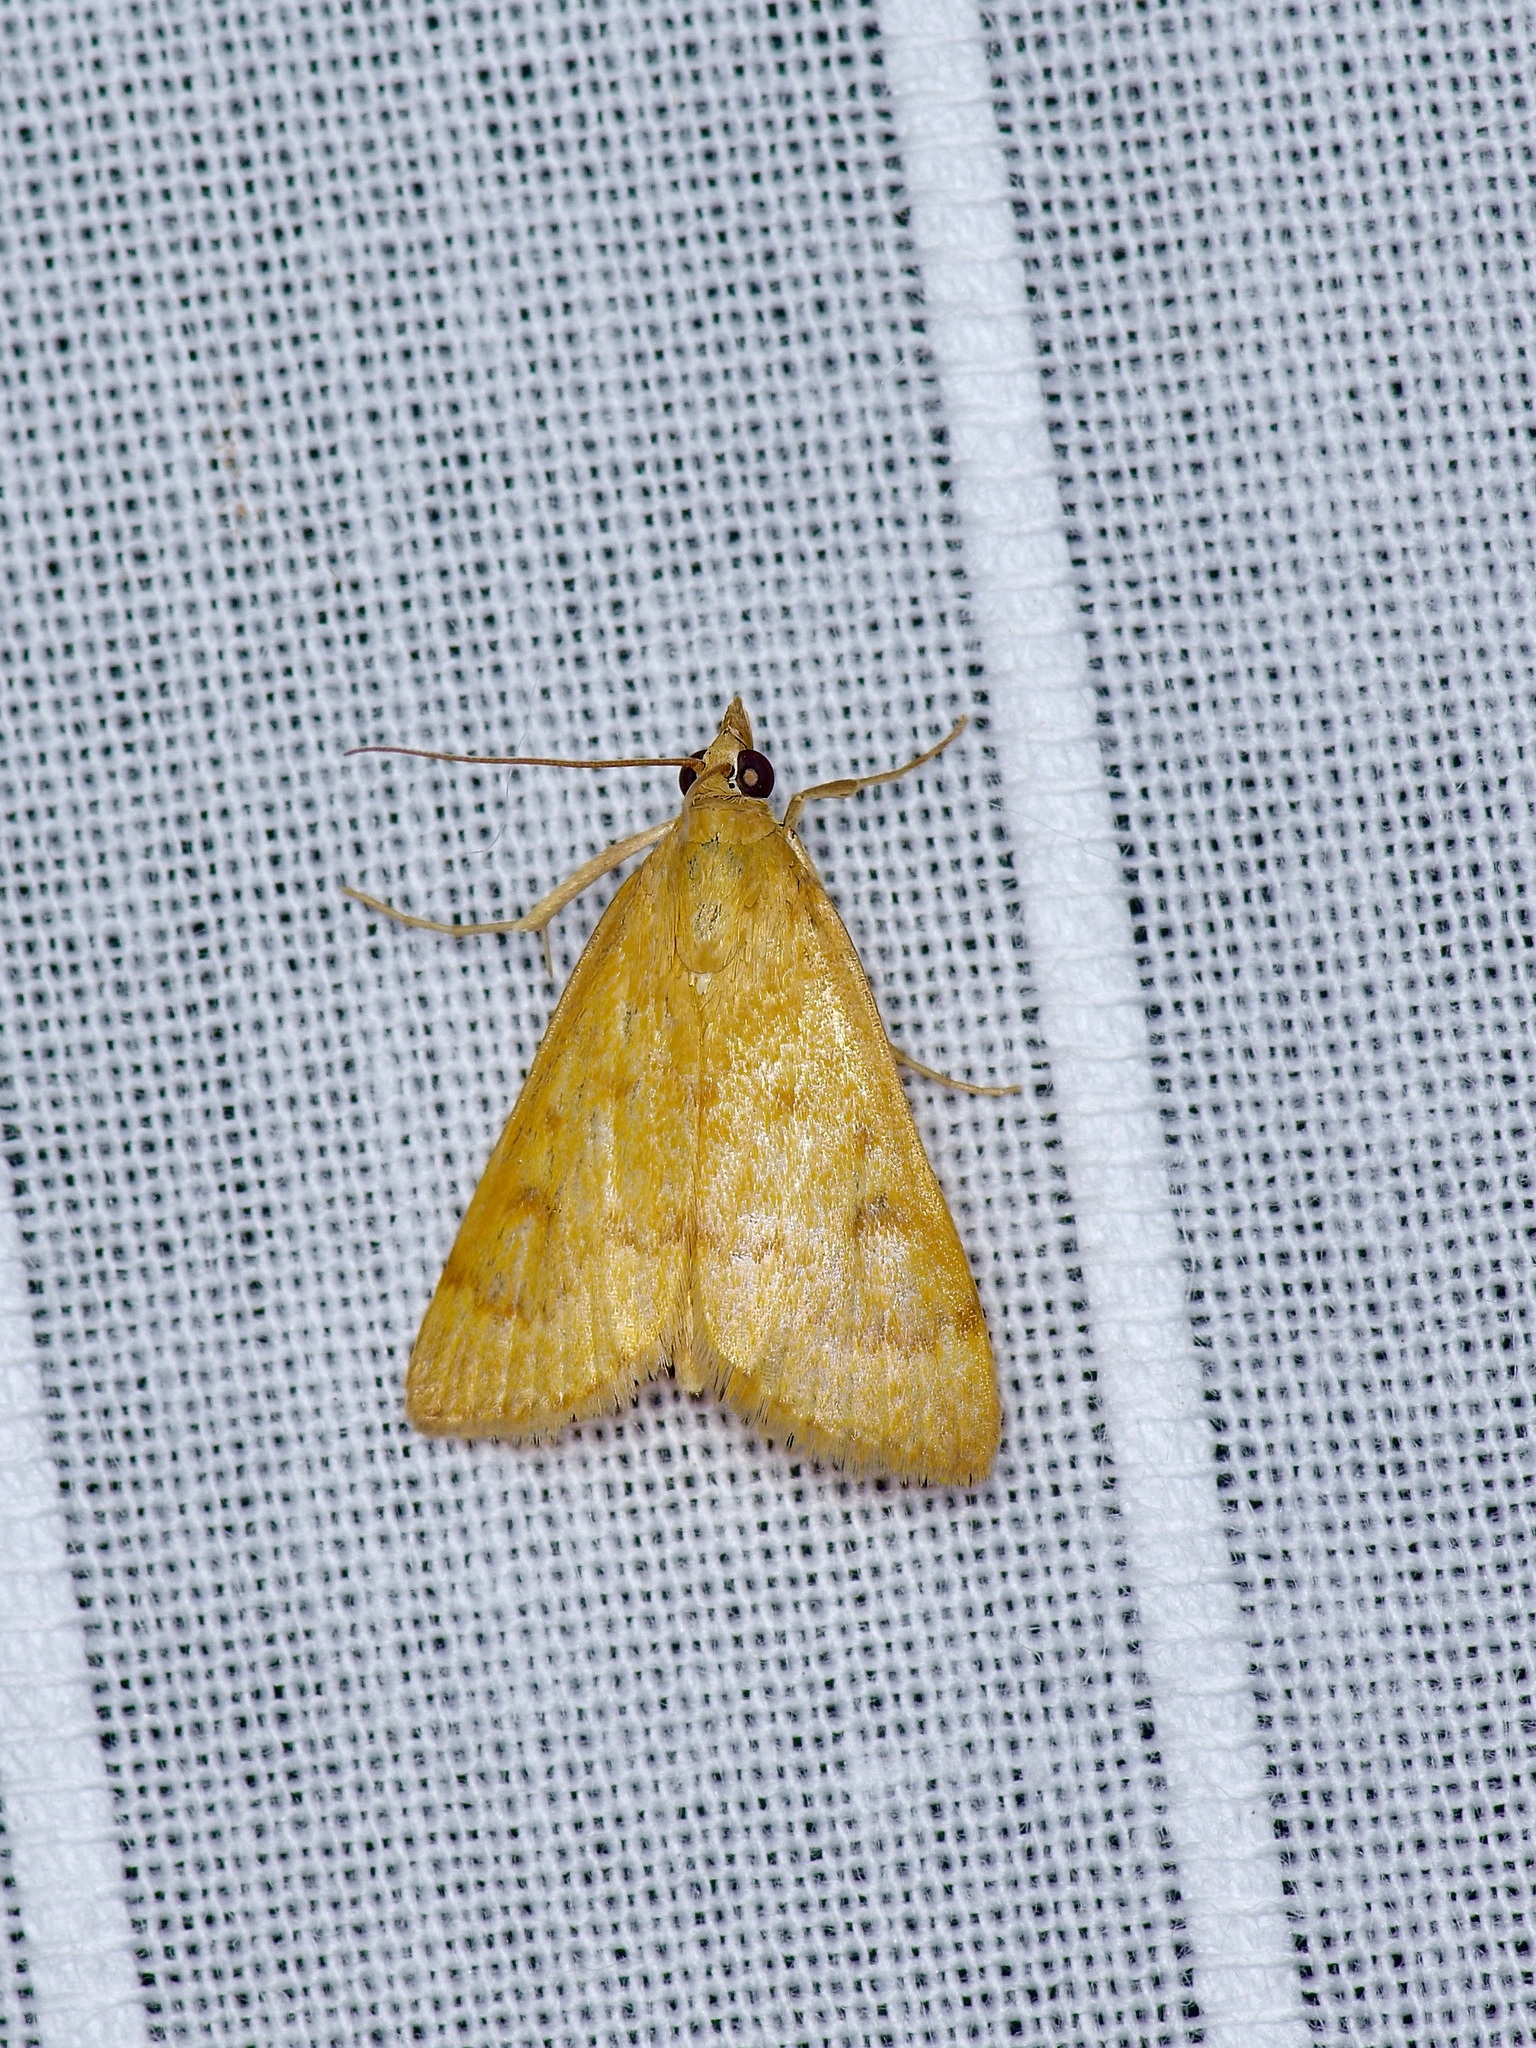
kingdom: Animalia
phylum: Arthropoda
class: Insecta
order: Lepidoptera
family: Crambidae
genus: Achyra
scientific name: Achyra rantalis
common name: Garden webworm
